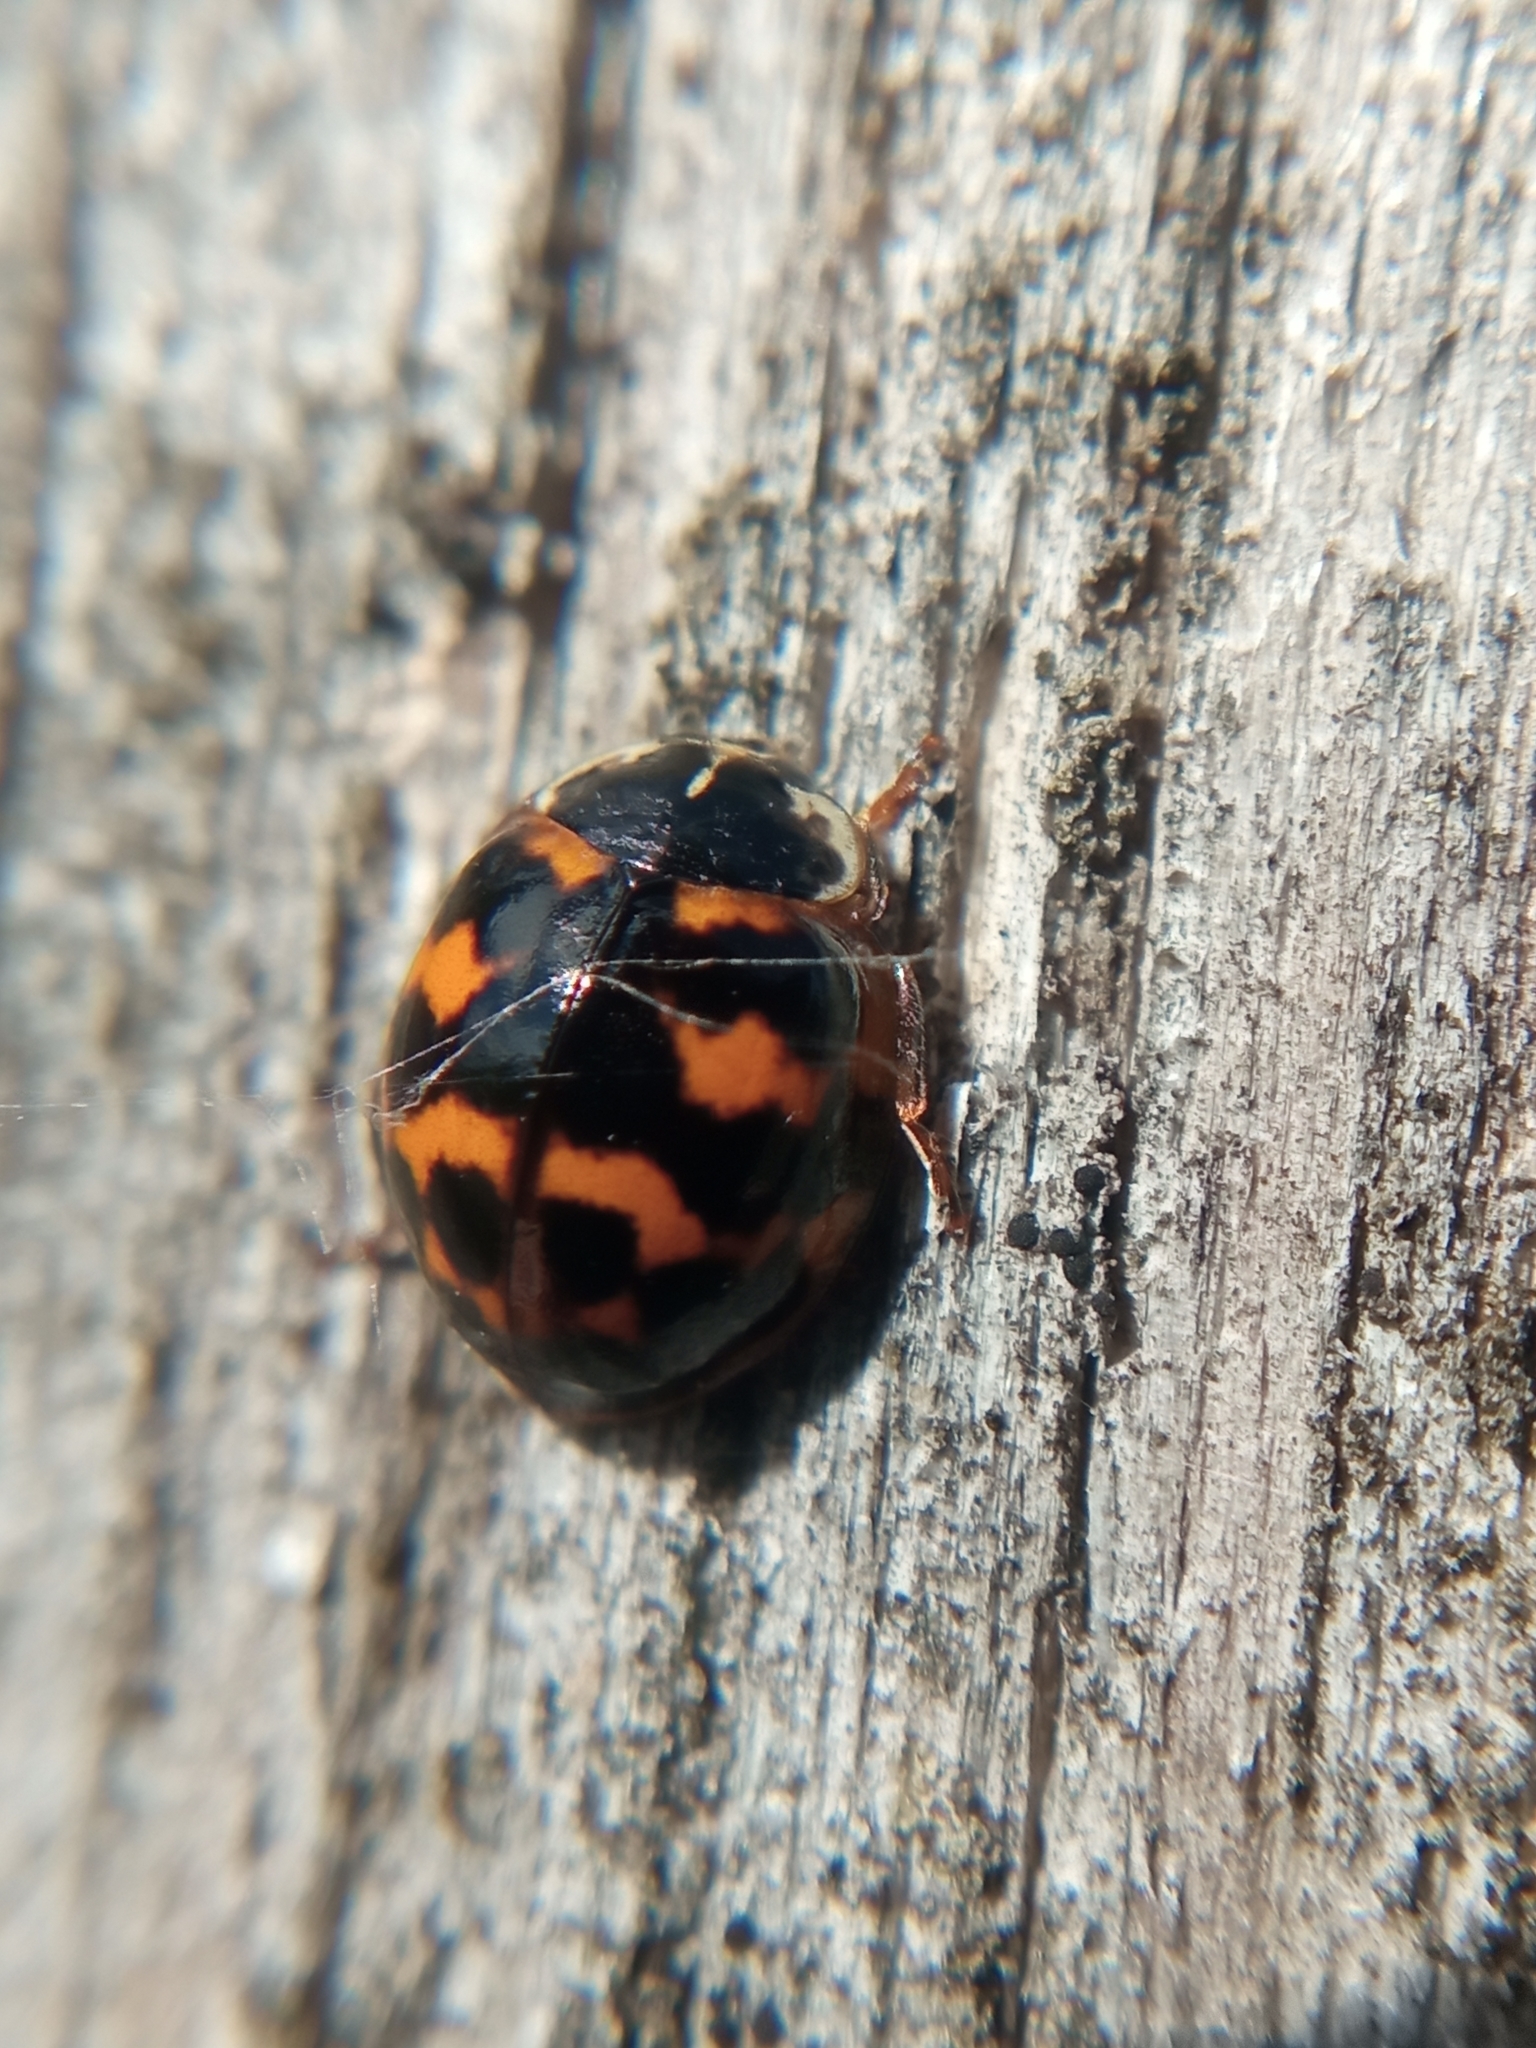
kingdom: Animalia
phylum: Arthropoda
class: Insecta
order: Coleoptera
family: Coccinellidae
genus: Harmonia
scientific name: Harmonia axyridis
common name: Harlequin ladybird
